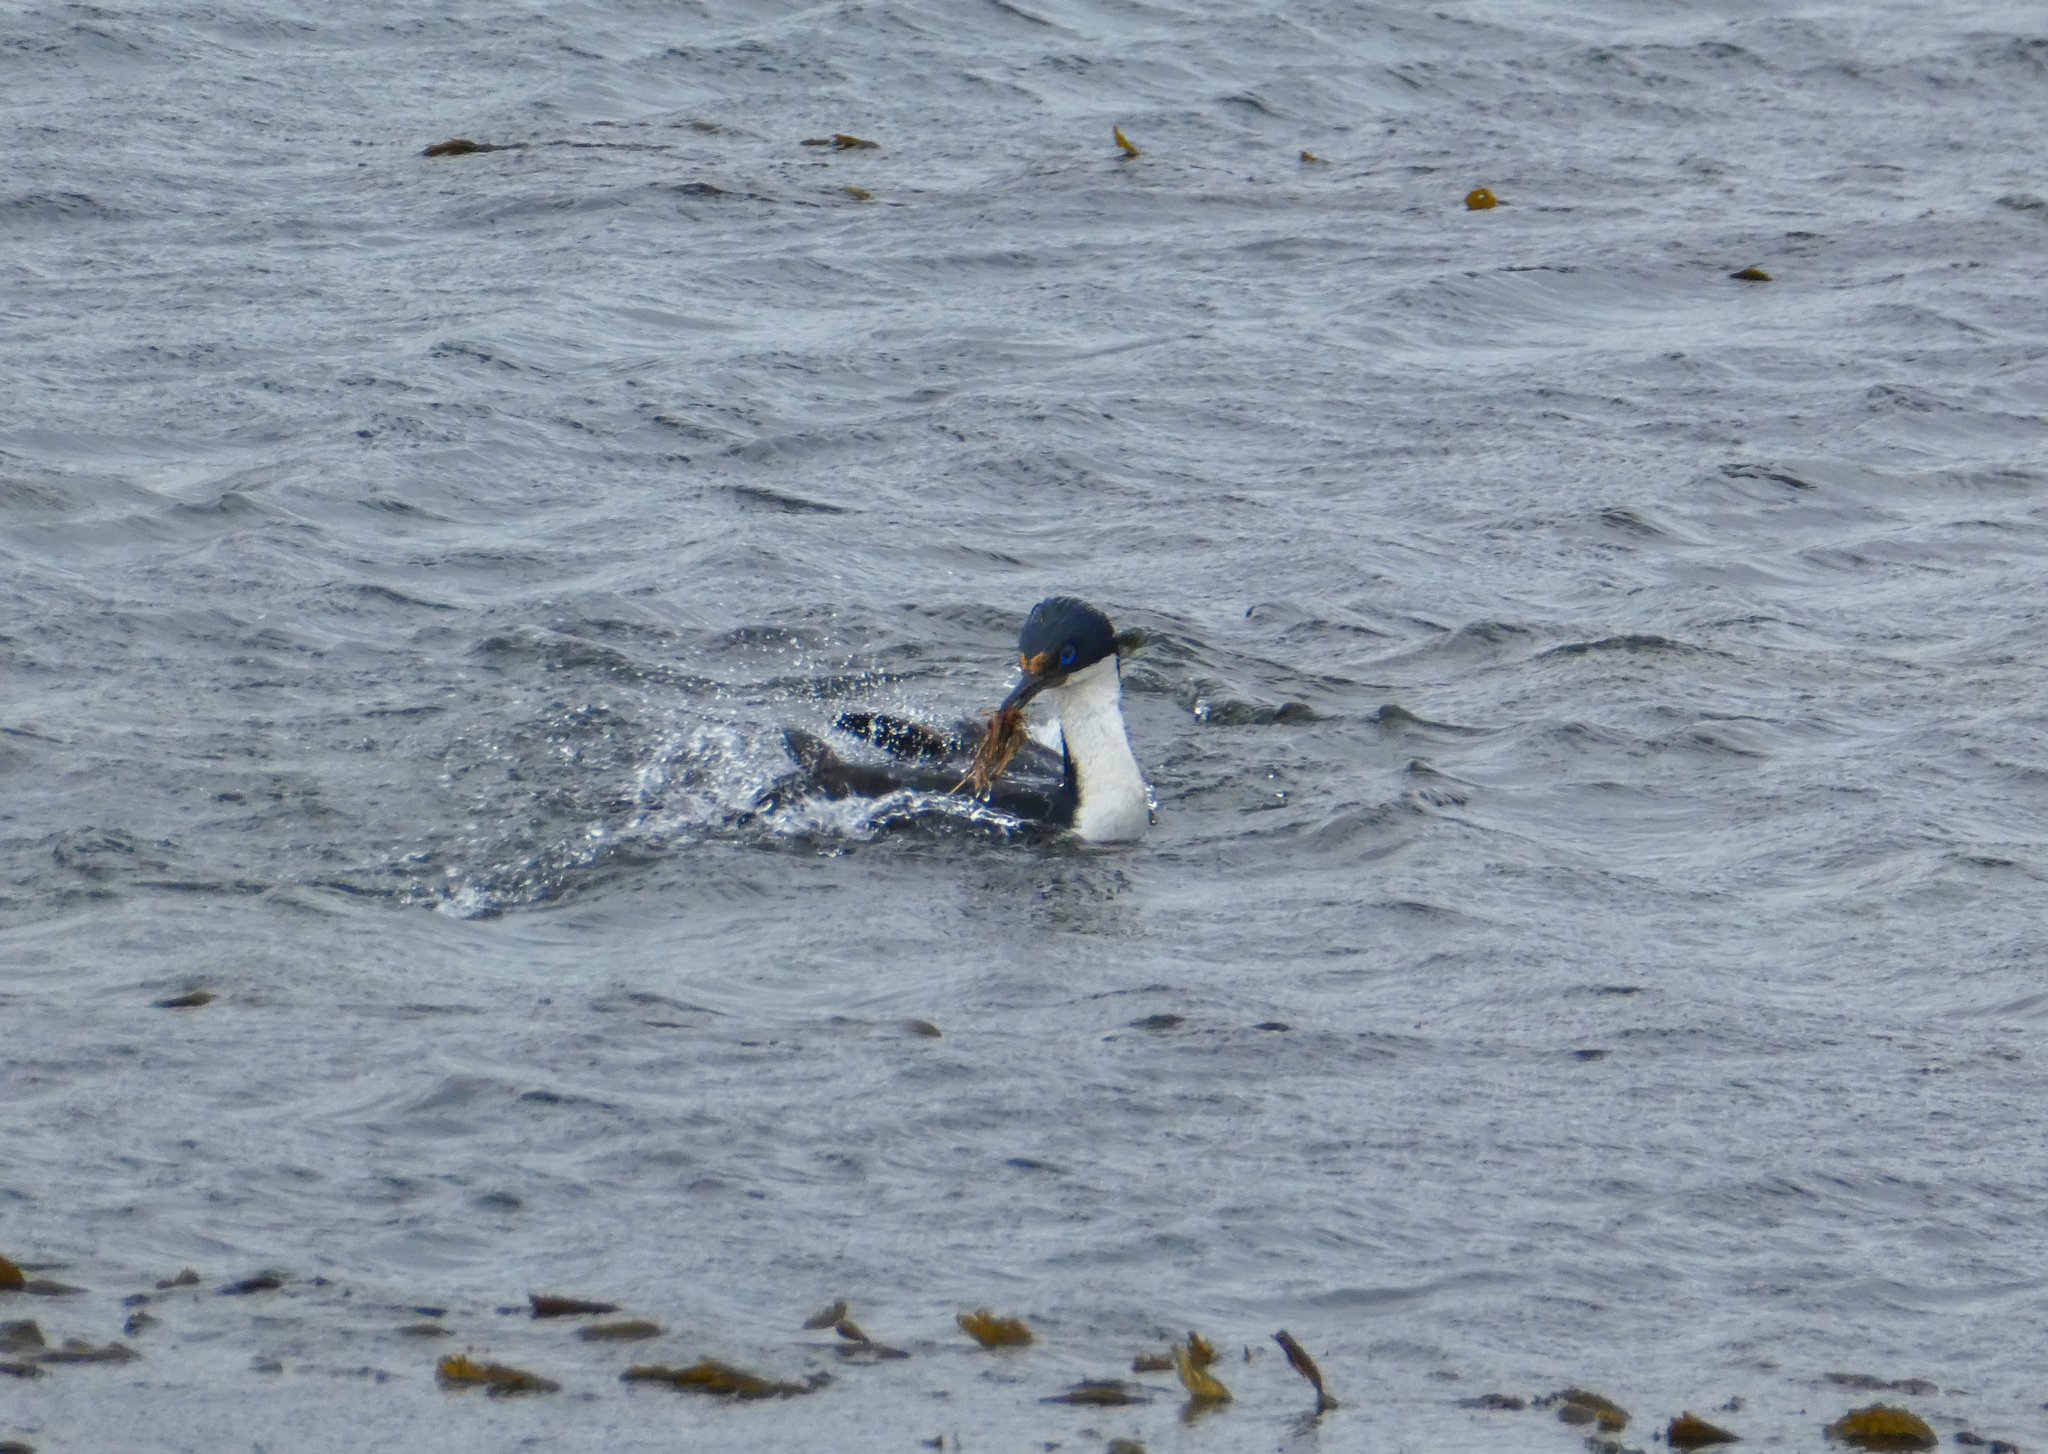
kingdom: Animalia
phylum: Chordata
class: Aves
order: Suliformes
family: Phalacrocoracidae
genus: Leucocarbo
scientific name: Leucocarbo atriceps
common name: Imperial shag
